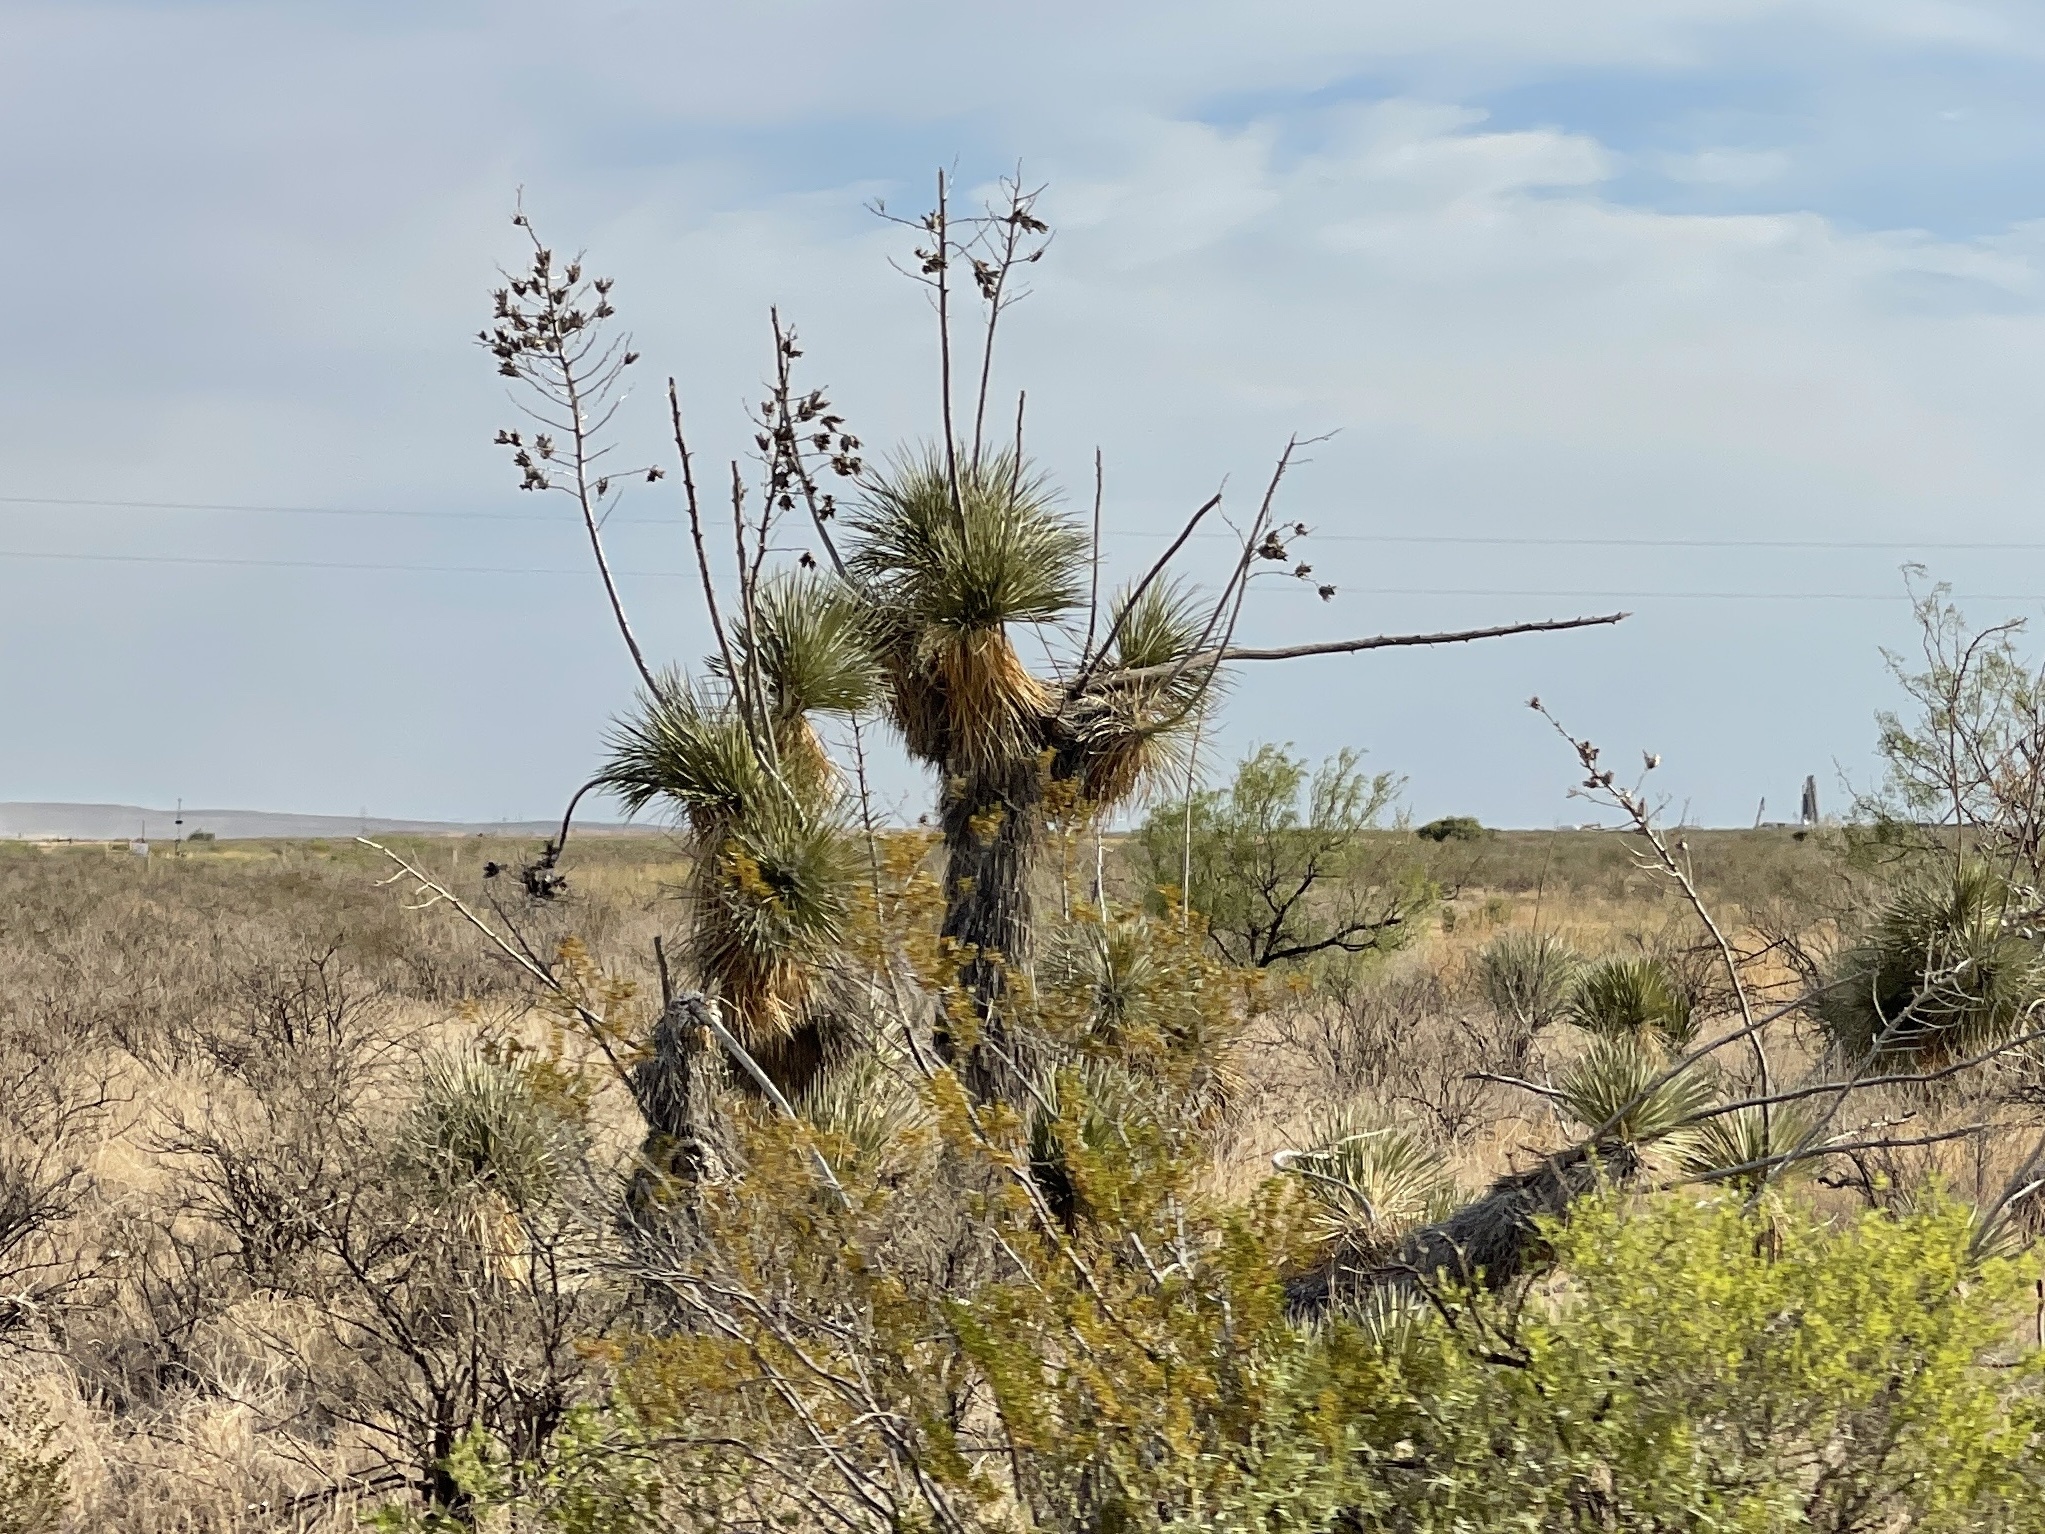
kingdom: Plantae
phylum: Tracheophyta
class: Liliopsida
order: Asparagales
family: Asparagaceae
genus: Yucca
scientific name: Yucca elata
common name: Palmella
